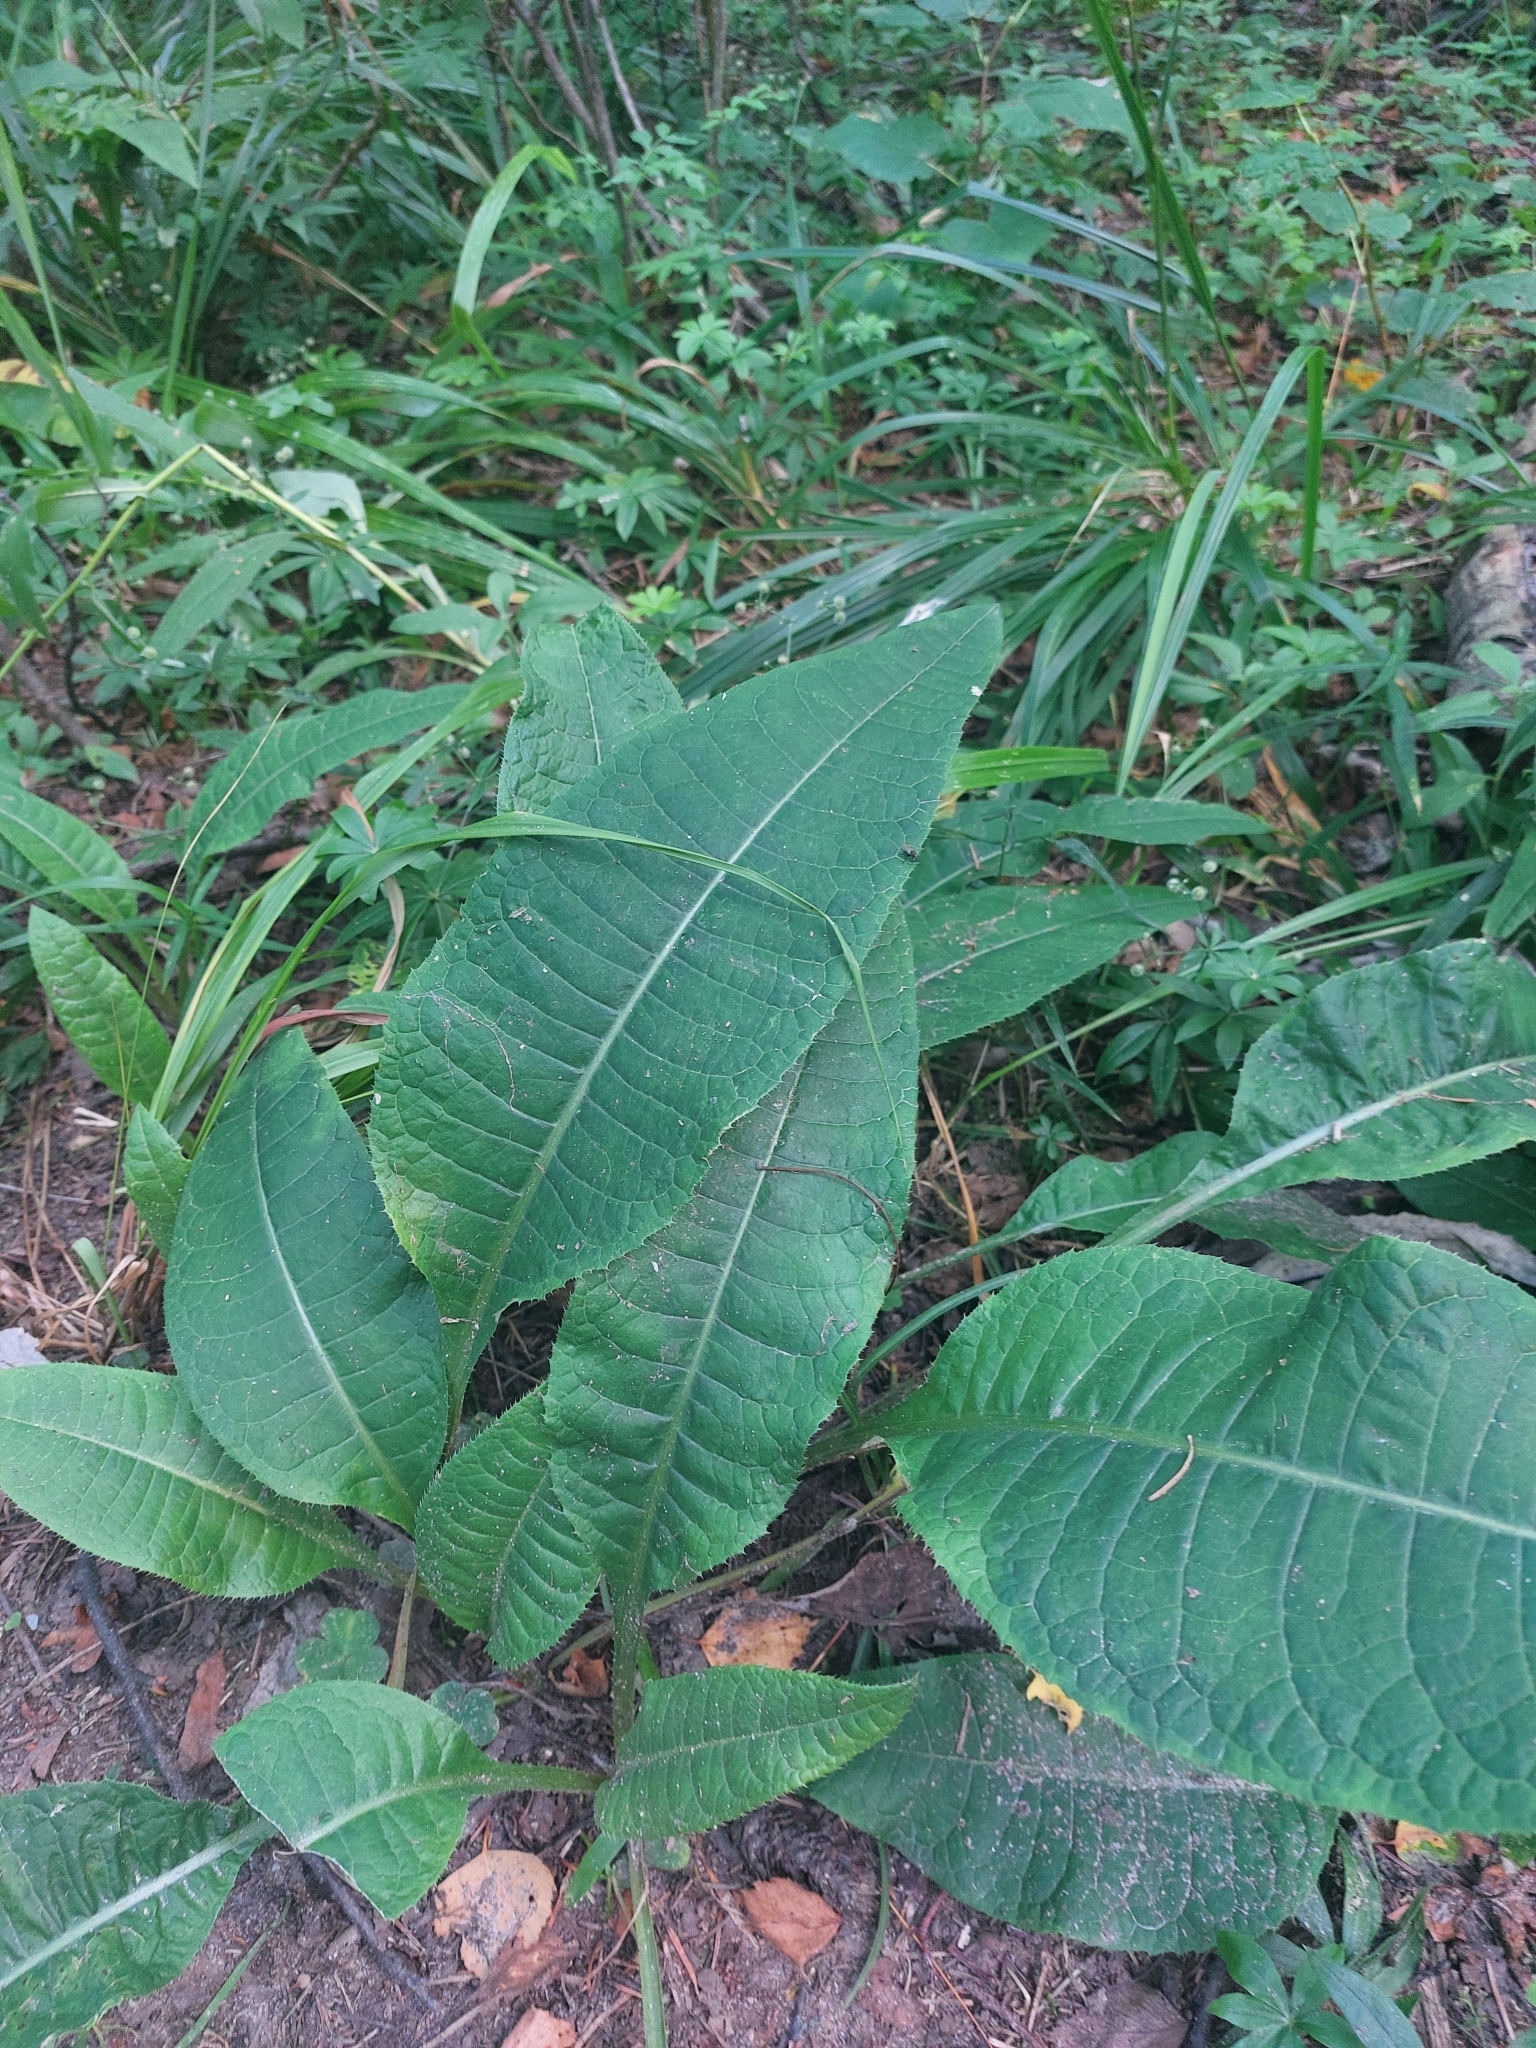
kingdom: Plantae
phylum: Tracheophyta
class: Magnoliopsida
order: Asterales
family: Asteraceae
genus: Cirsium
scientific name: Cirsium heterophyllum
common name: Melancholy thistle
